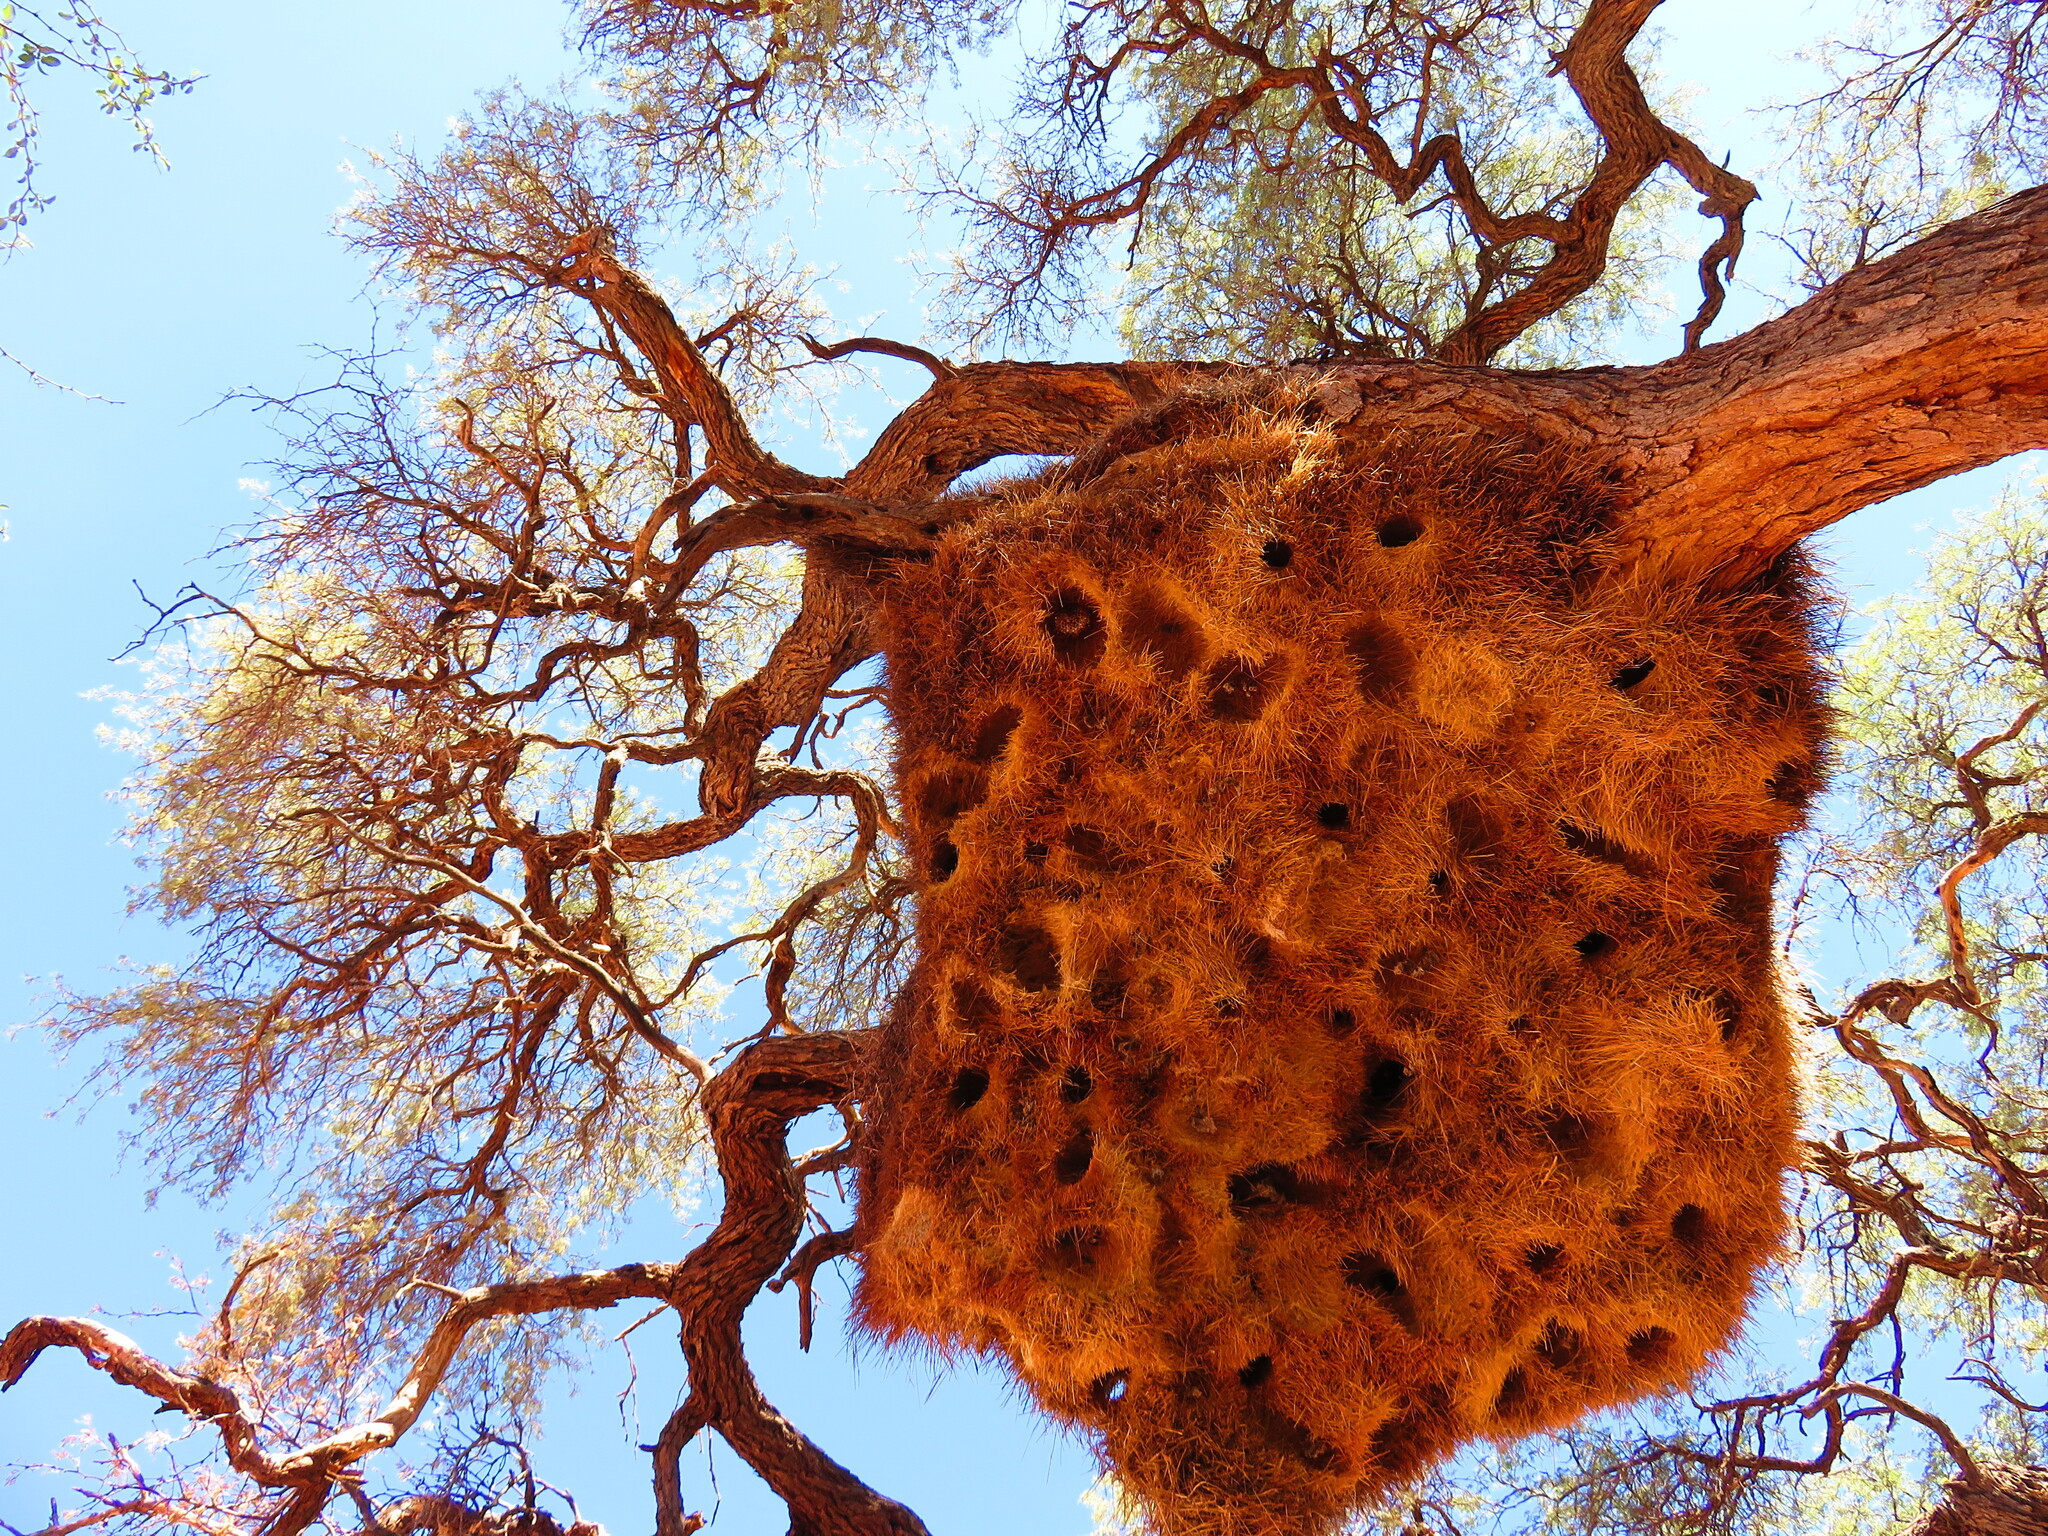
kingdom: Animalia
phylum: Chordata
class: Aves
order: Passeriformes
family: Passeridae
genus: Philetairus
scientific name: Philetairus socius
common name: Sociable weaver
